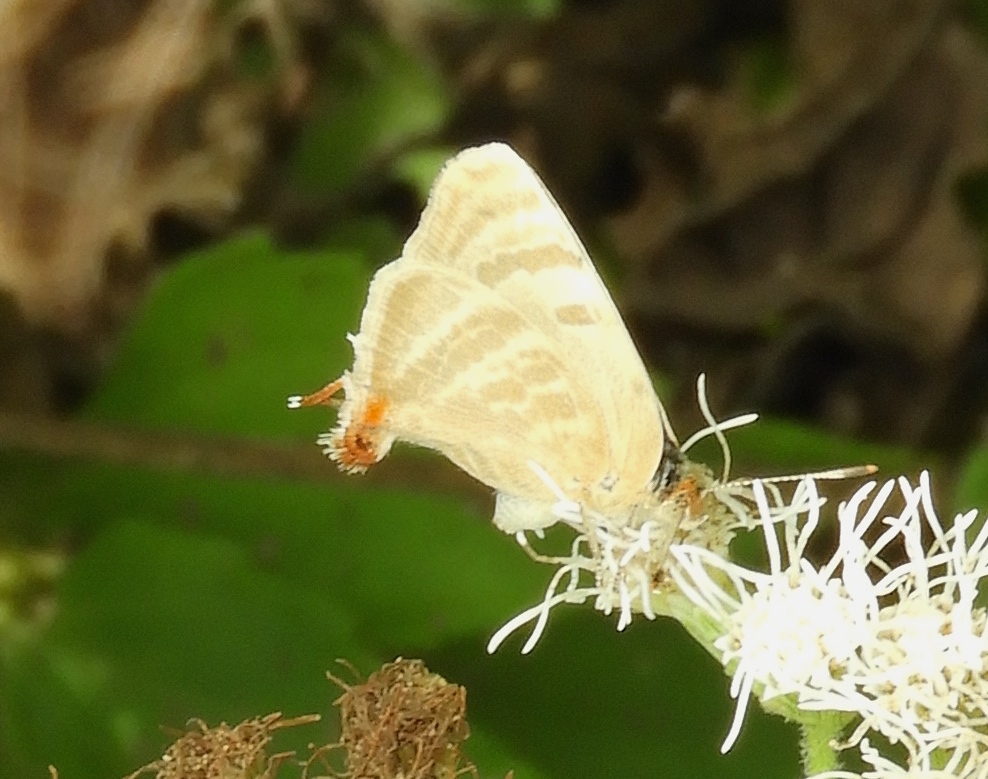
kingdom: Animalia
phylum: Arthropoda
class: Insecta
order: Lepidoptera
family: Lycaenidae
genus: Dolymorpha
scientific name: Dolymorpha jada
